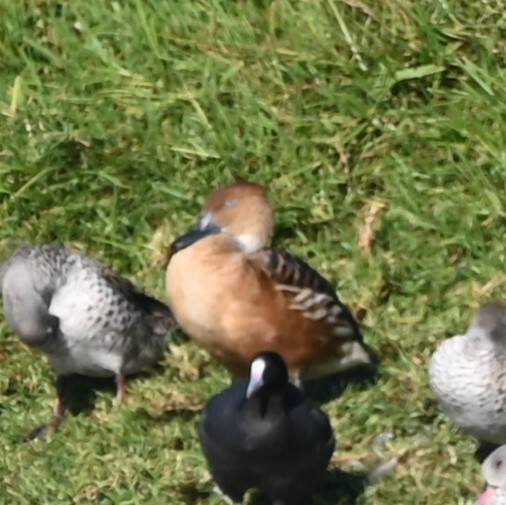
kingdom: Animalia
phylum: Chordata
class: Aves
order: Anseriformes
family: Anatidae
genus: Dendrocygna
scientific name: Dendrocygna bicolor
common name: Fulvous whistling duck
